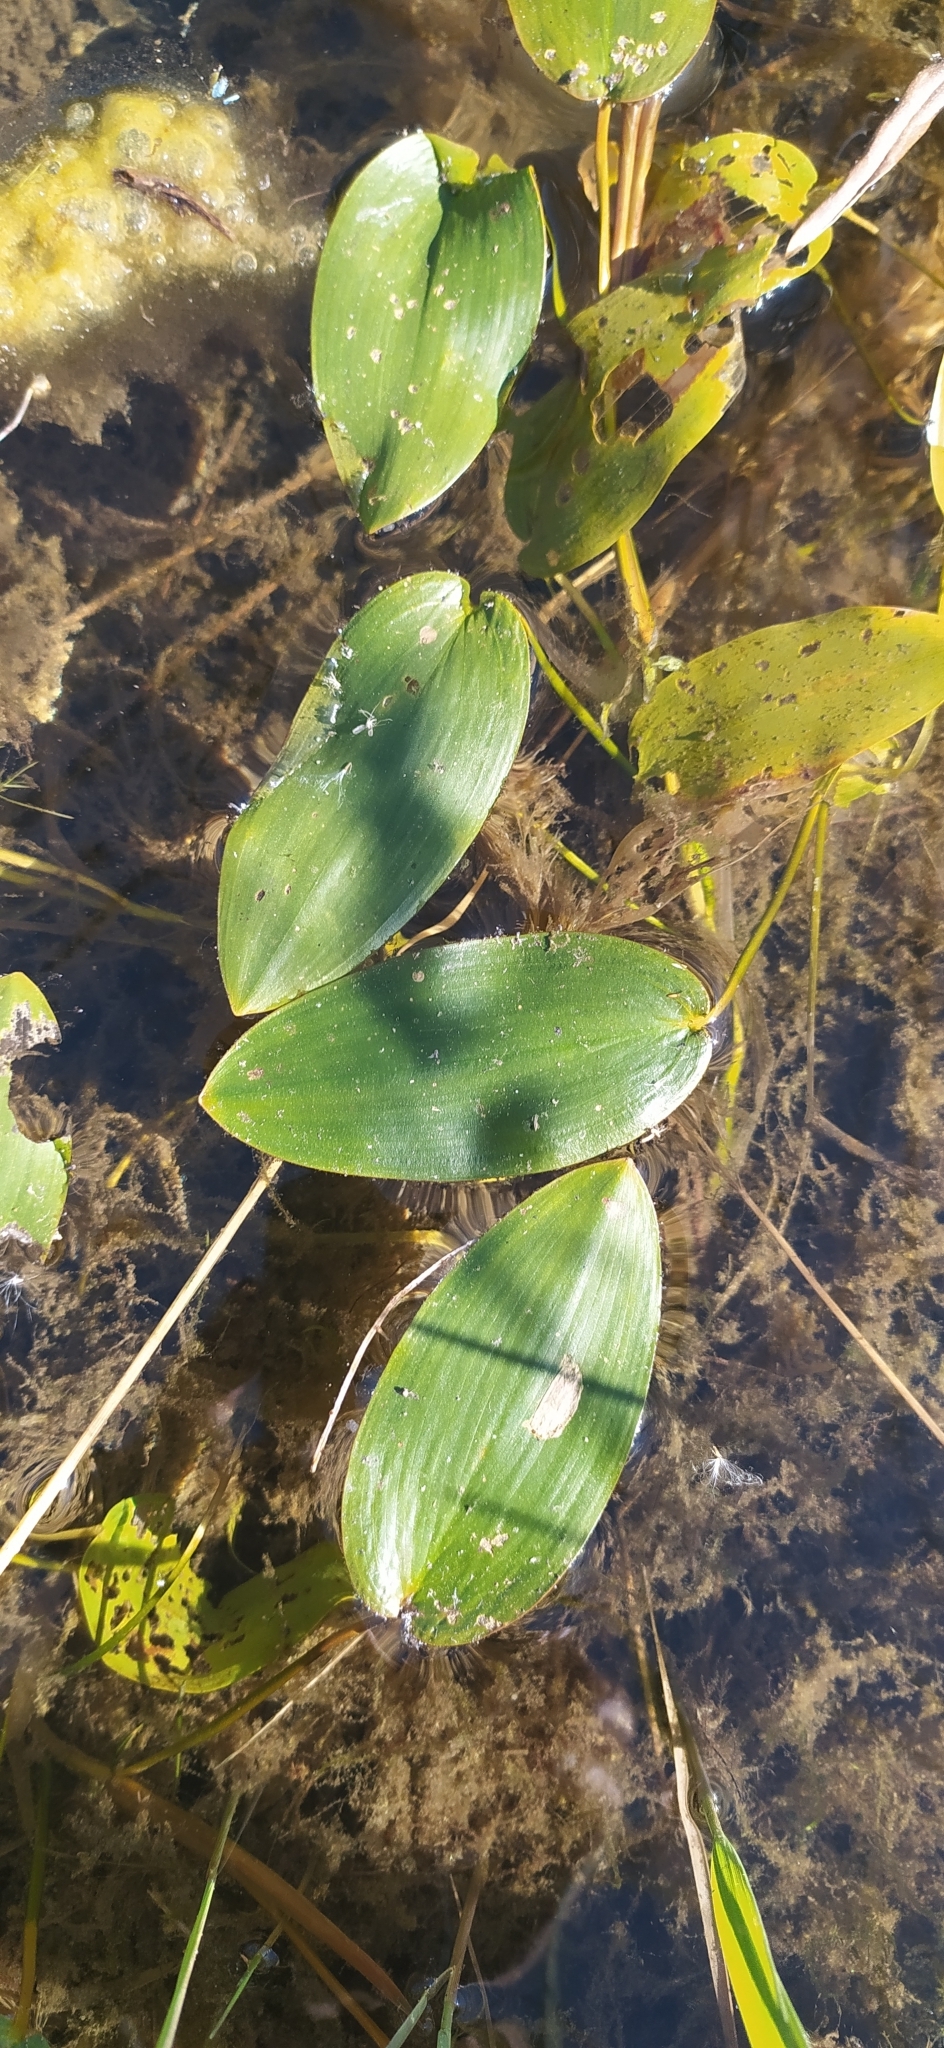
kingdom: Plantae
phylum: Tracheophyta
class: Liliopsida
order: Alismatales
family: Potamogetonaceae
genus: Potamogeton
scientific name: Potamogeton natans
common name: Broad-leaved pondweed
